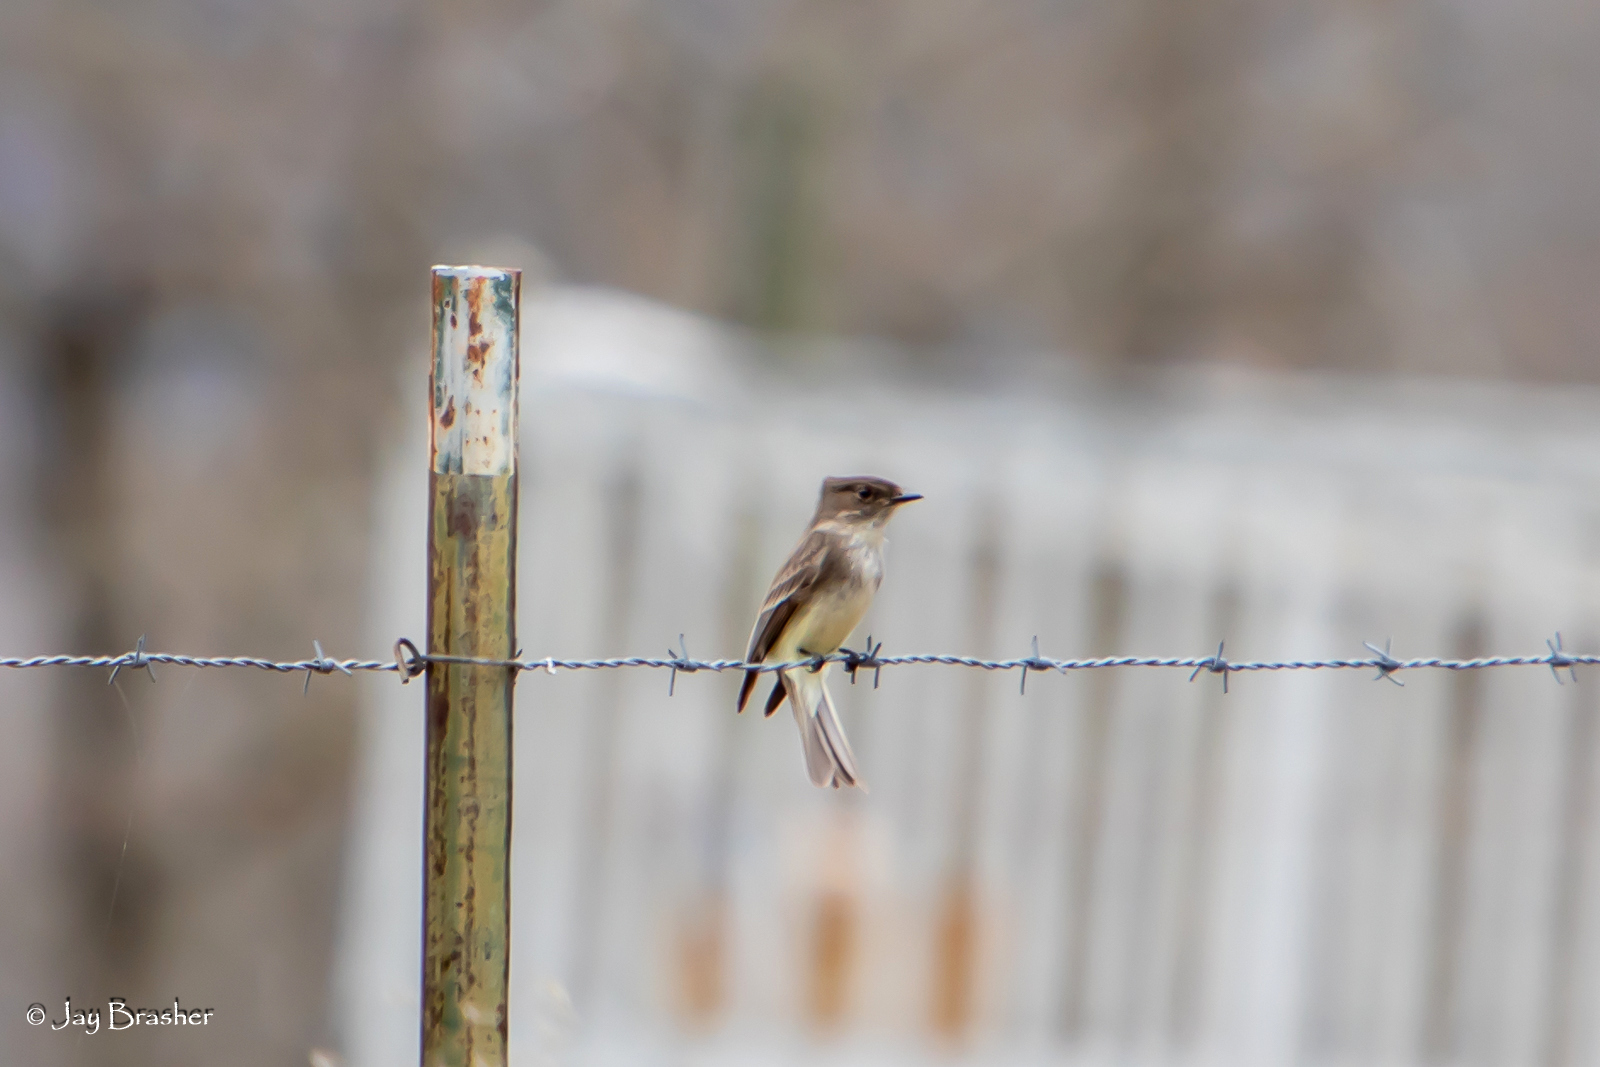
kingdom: Animalia
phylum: Chordata
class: Aves
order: Passeriformes
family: Tyrannidae
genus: Sayornis
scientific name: Sayornis phoebe
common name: Eastern phoebe
